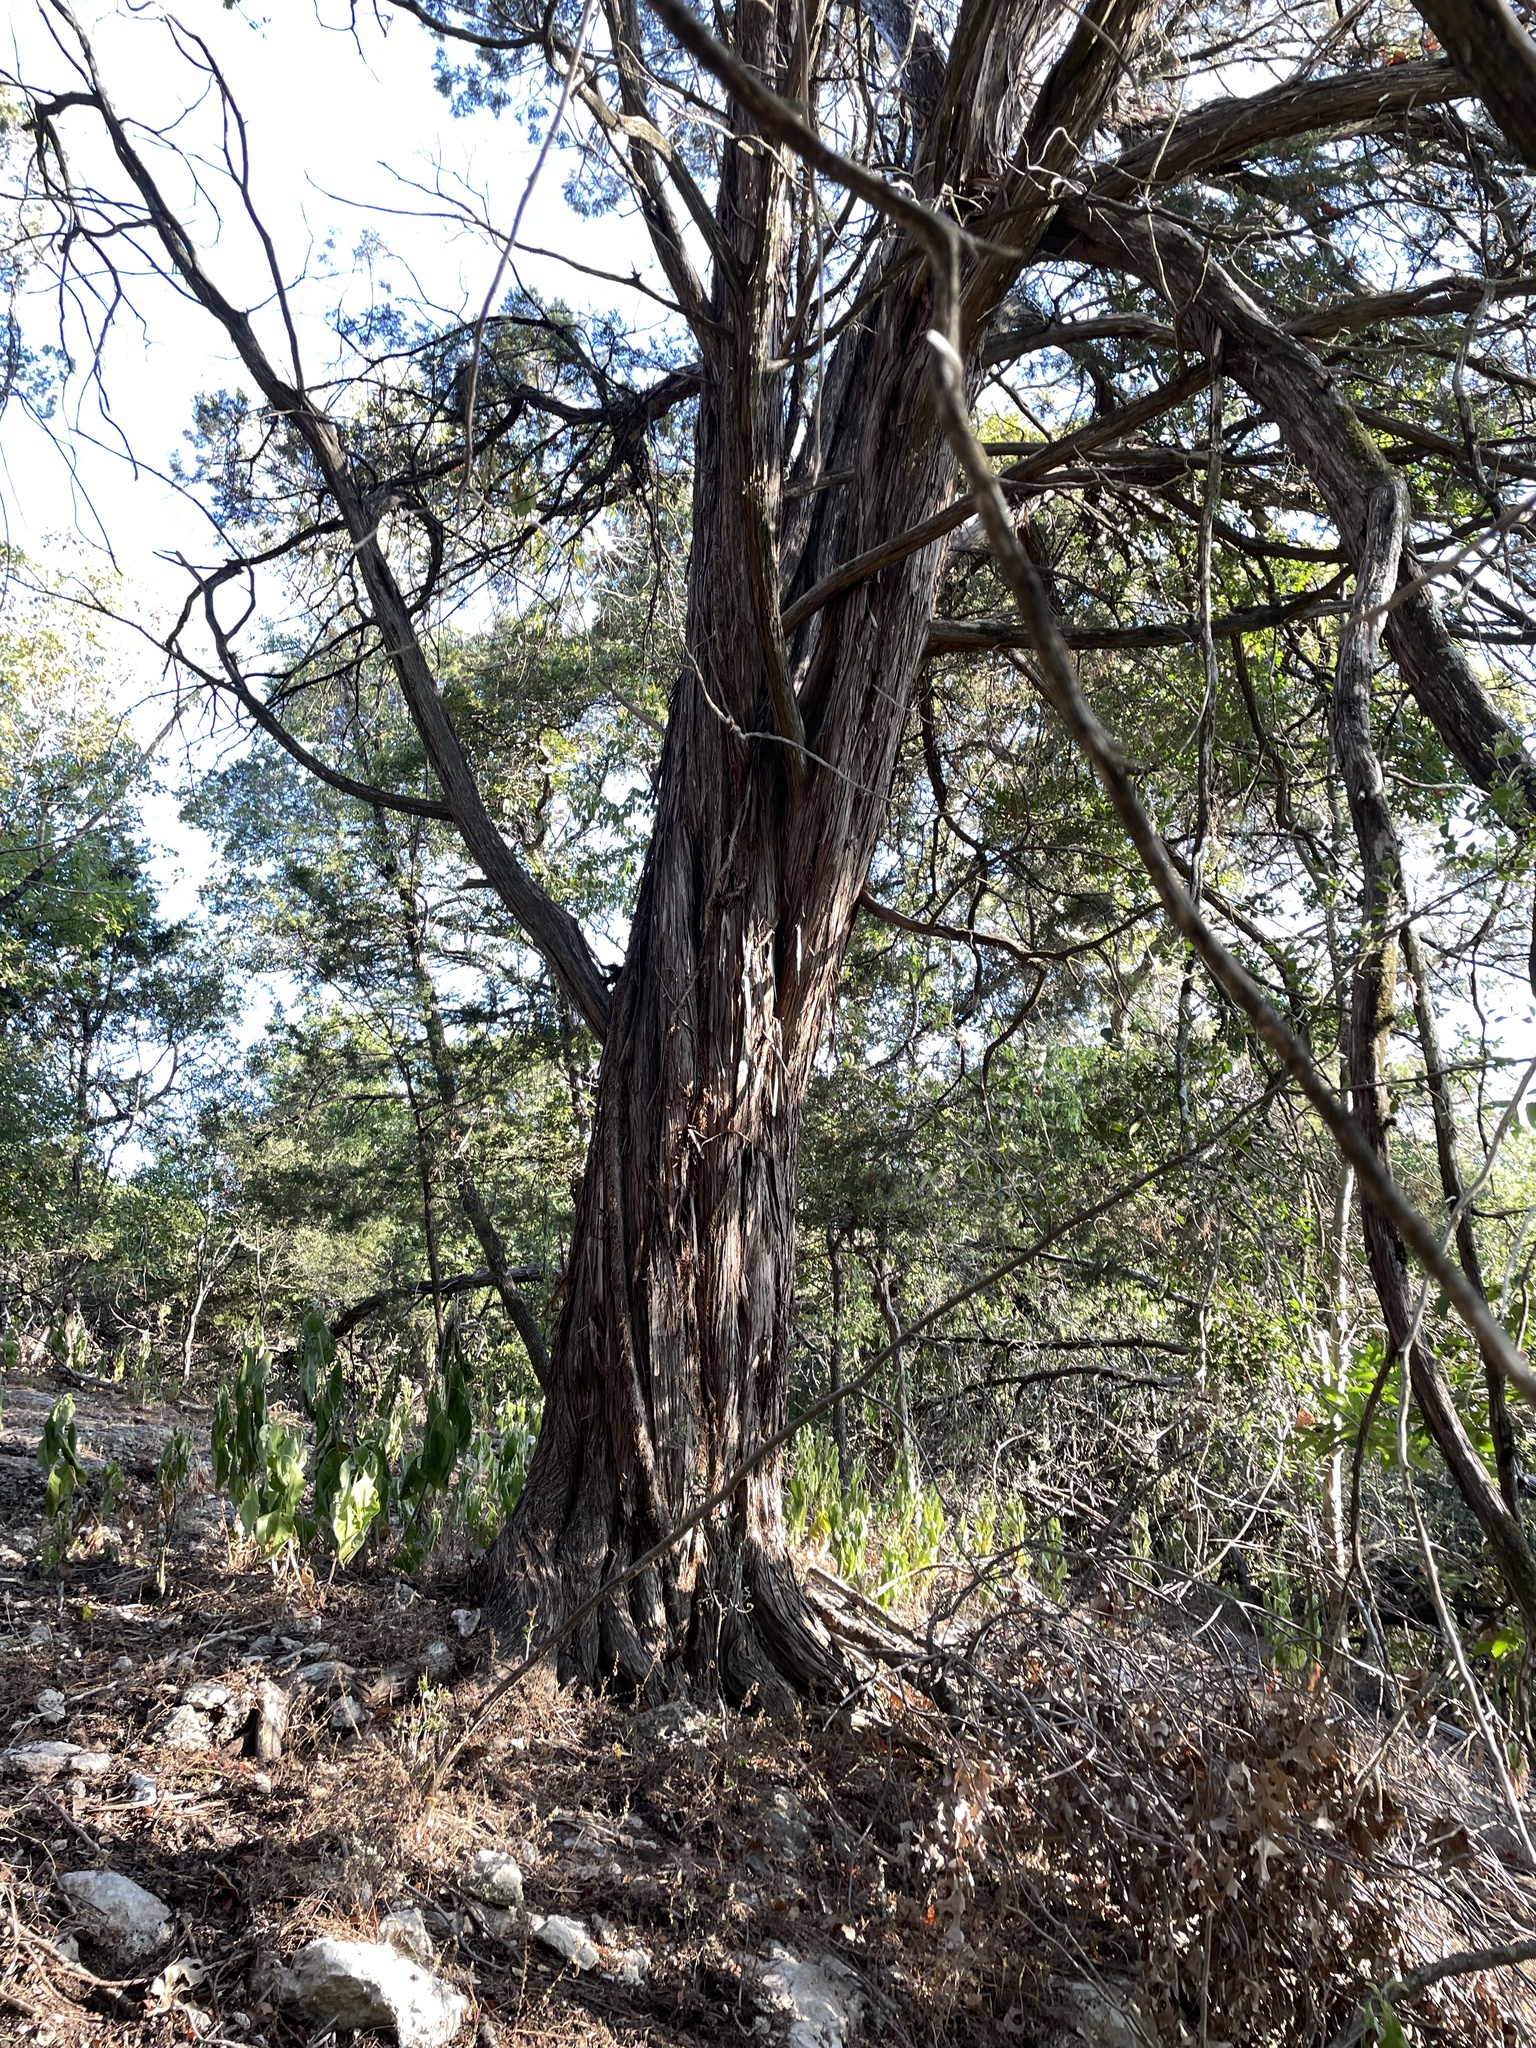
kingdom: Plantae
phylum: Tracheophyta
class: Pinopsida
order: Pinales
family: Cupressaceae
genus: Juniperus
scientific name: Juniperus ashei
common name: Mexican juniper
